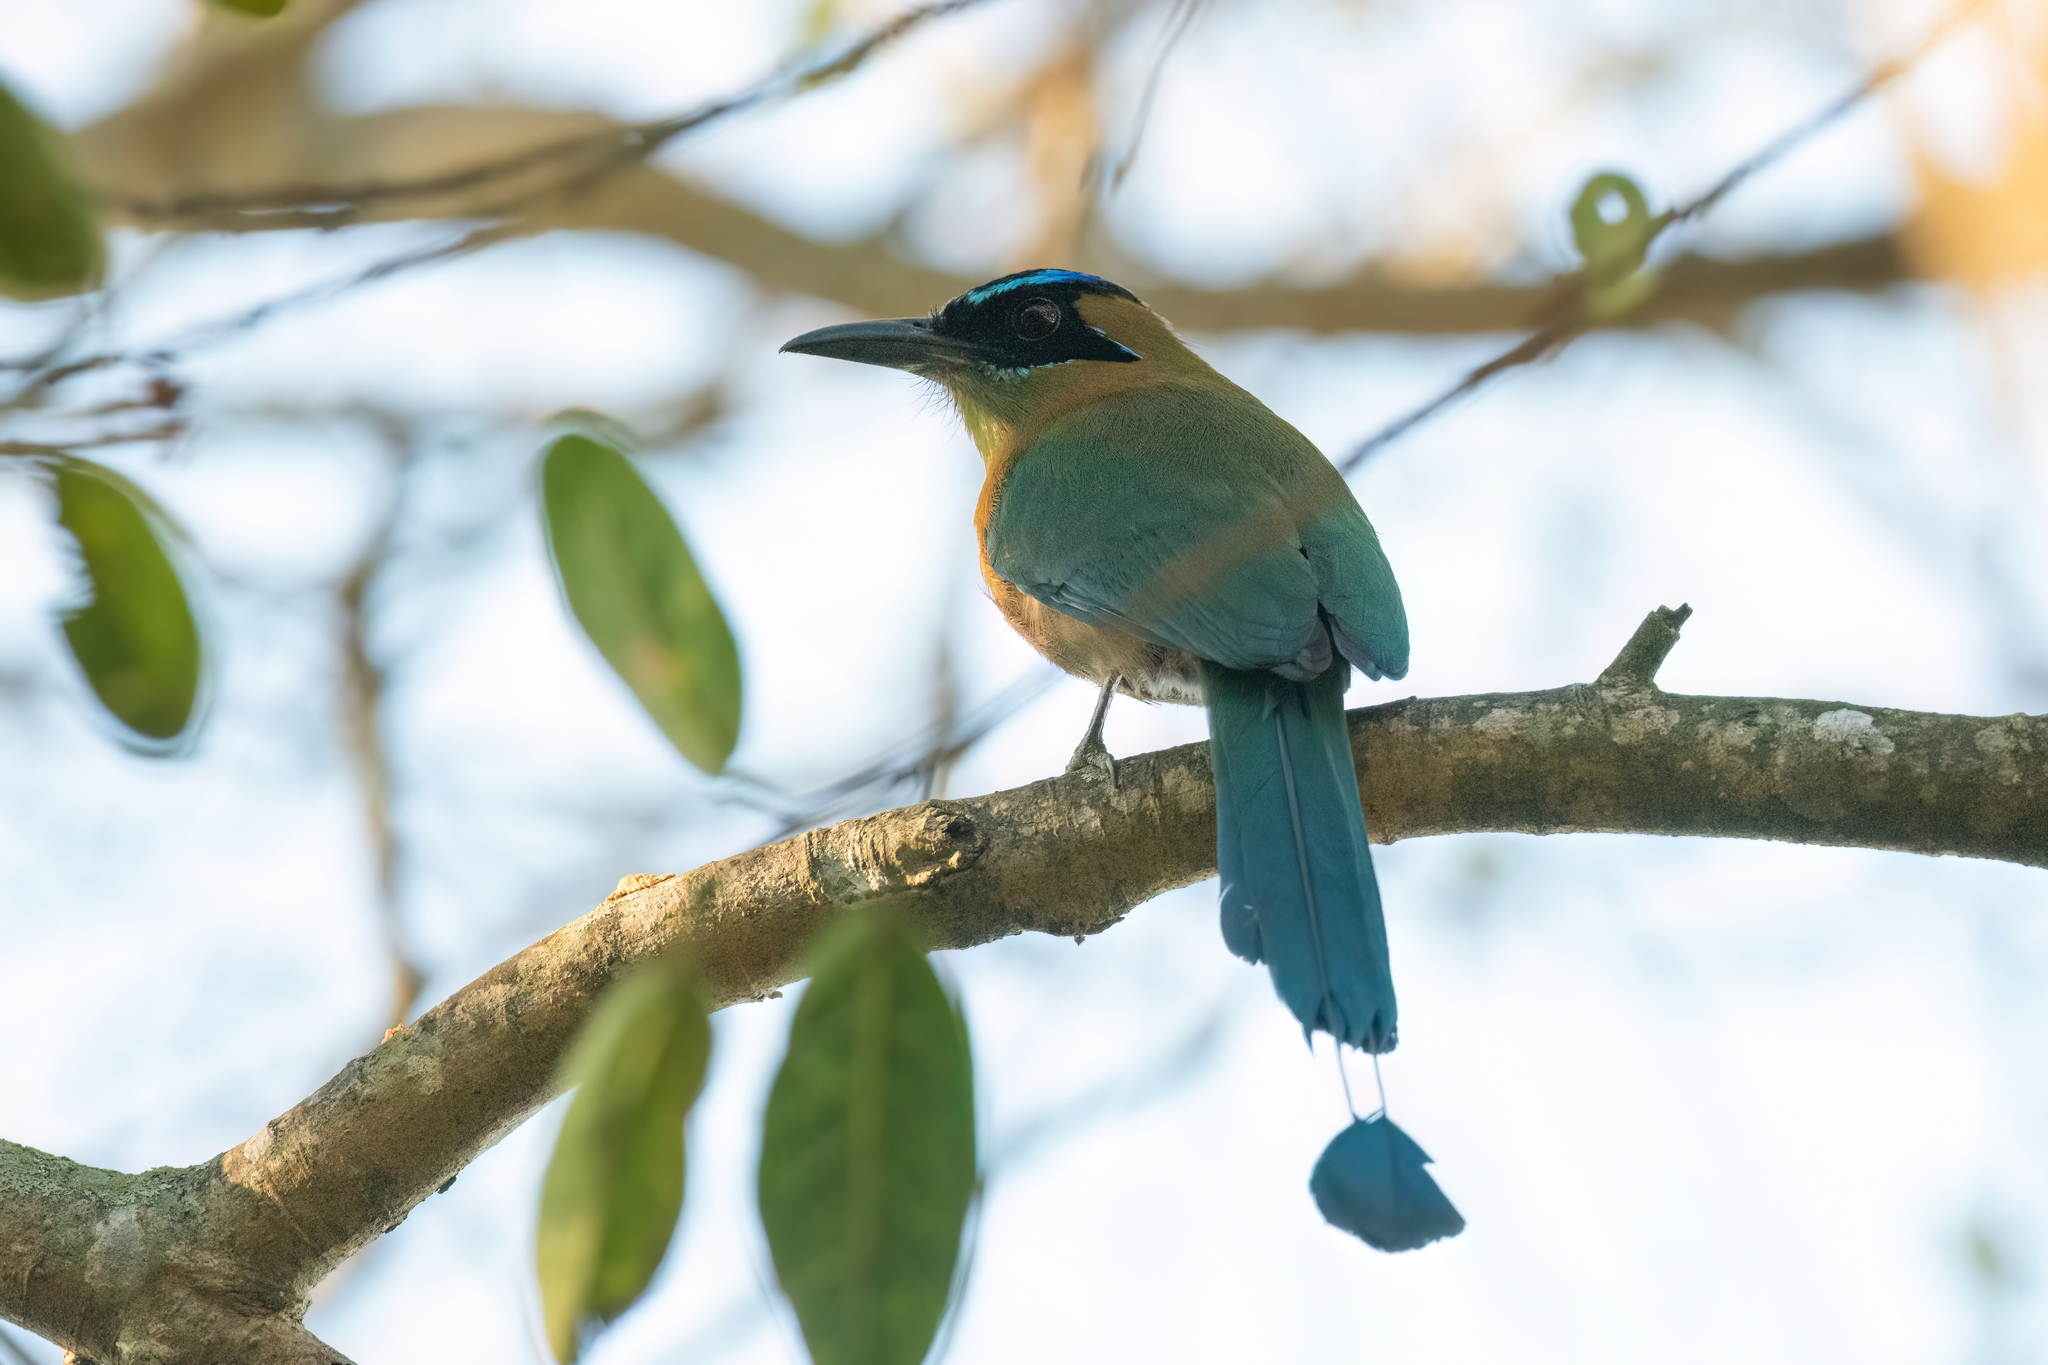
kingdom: Animalia
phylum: Chordata
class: Aves
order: Coraciiformes
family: Momotidae
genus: Momotus
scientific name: Momotus lessonii
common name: Lesson's motmot
